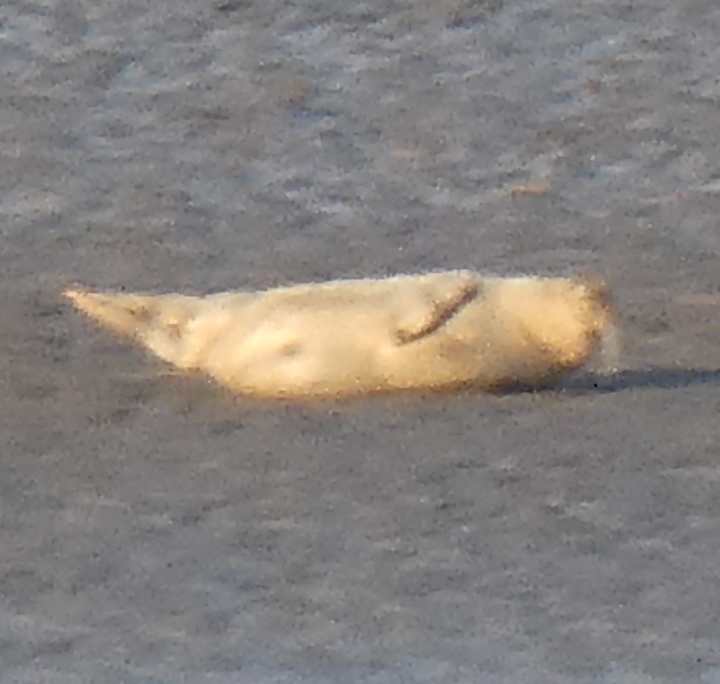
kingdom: Animalia
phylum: Chordata
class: Mammalia
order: Carnivora
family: Phocidae
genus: Phoca
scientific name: Phoca vitulina
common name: Harbor seal
